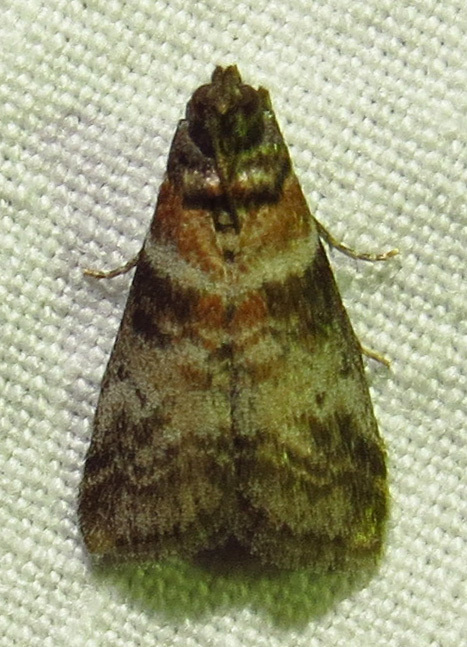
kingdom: Animalia
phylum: Arthropoda
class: Insecta
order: Lepidoptera
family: Pyralidae
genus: Sciota
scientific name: Sciota uvinella
